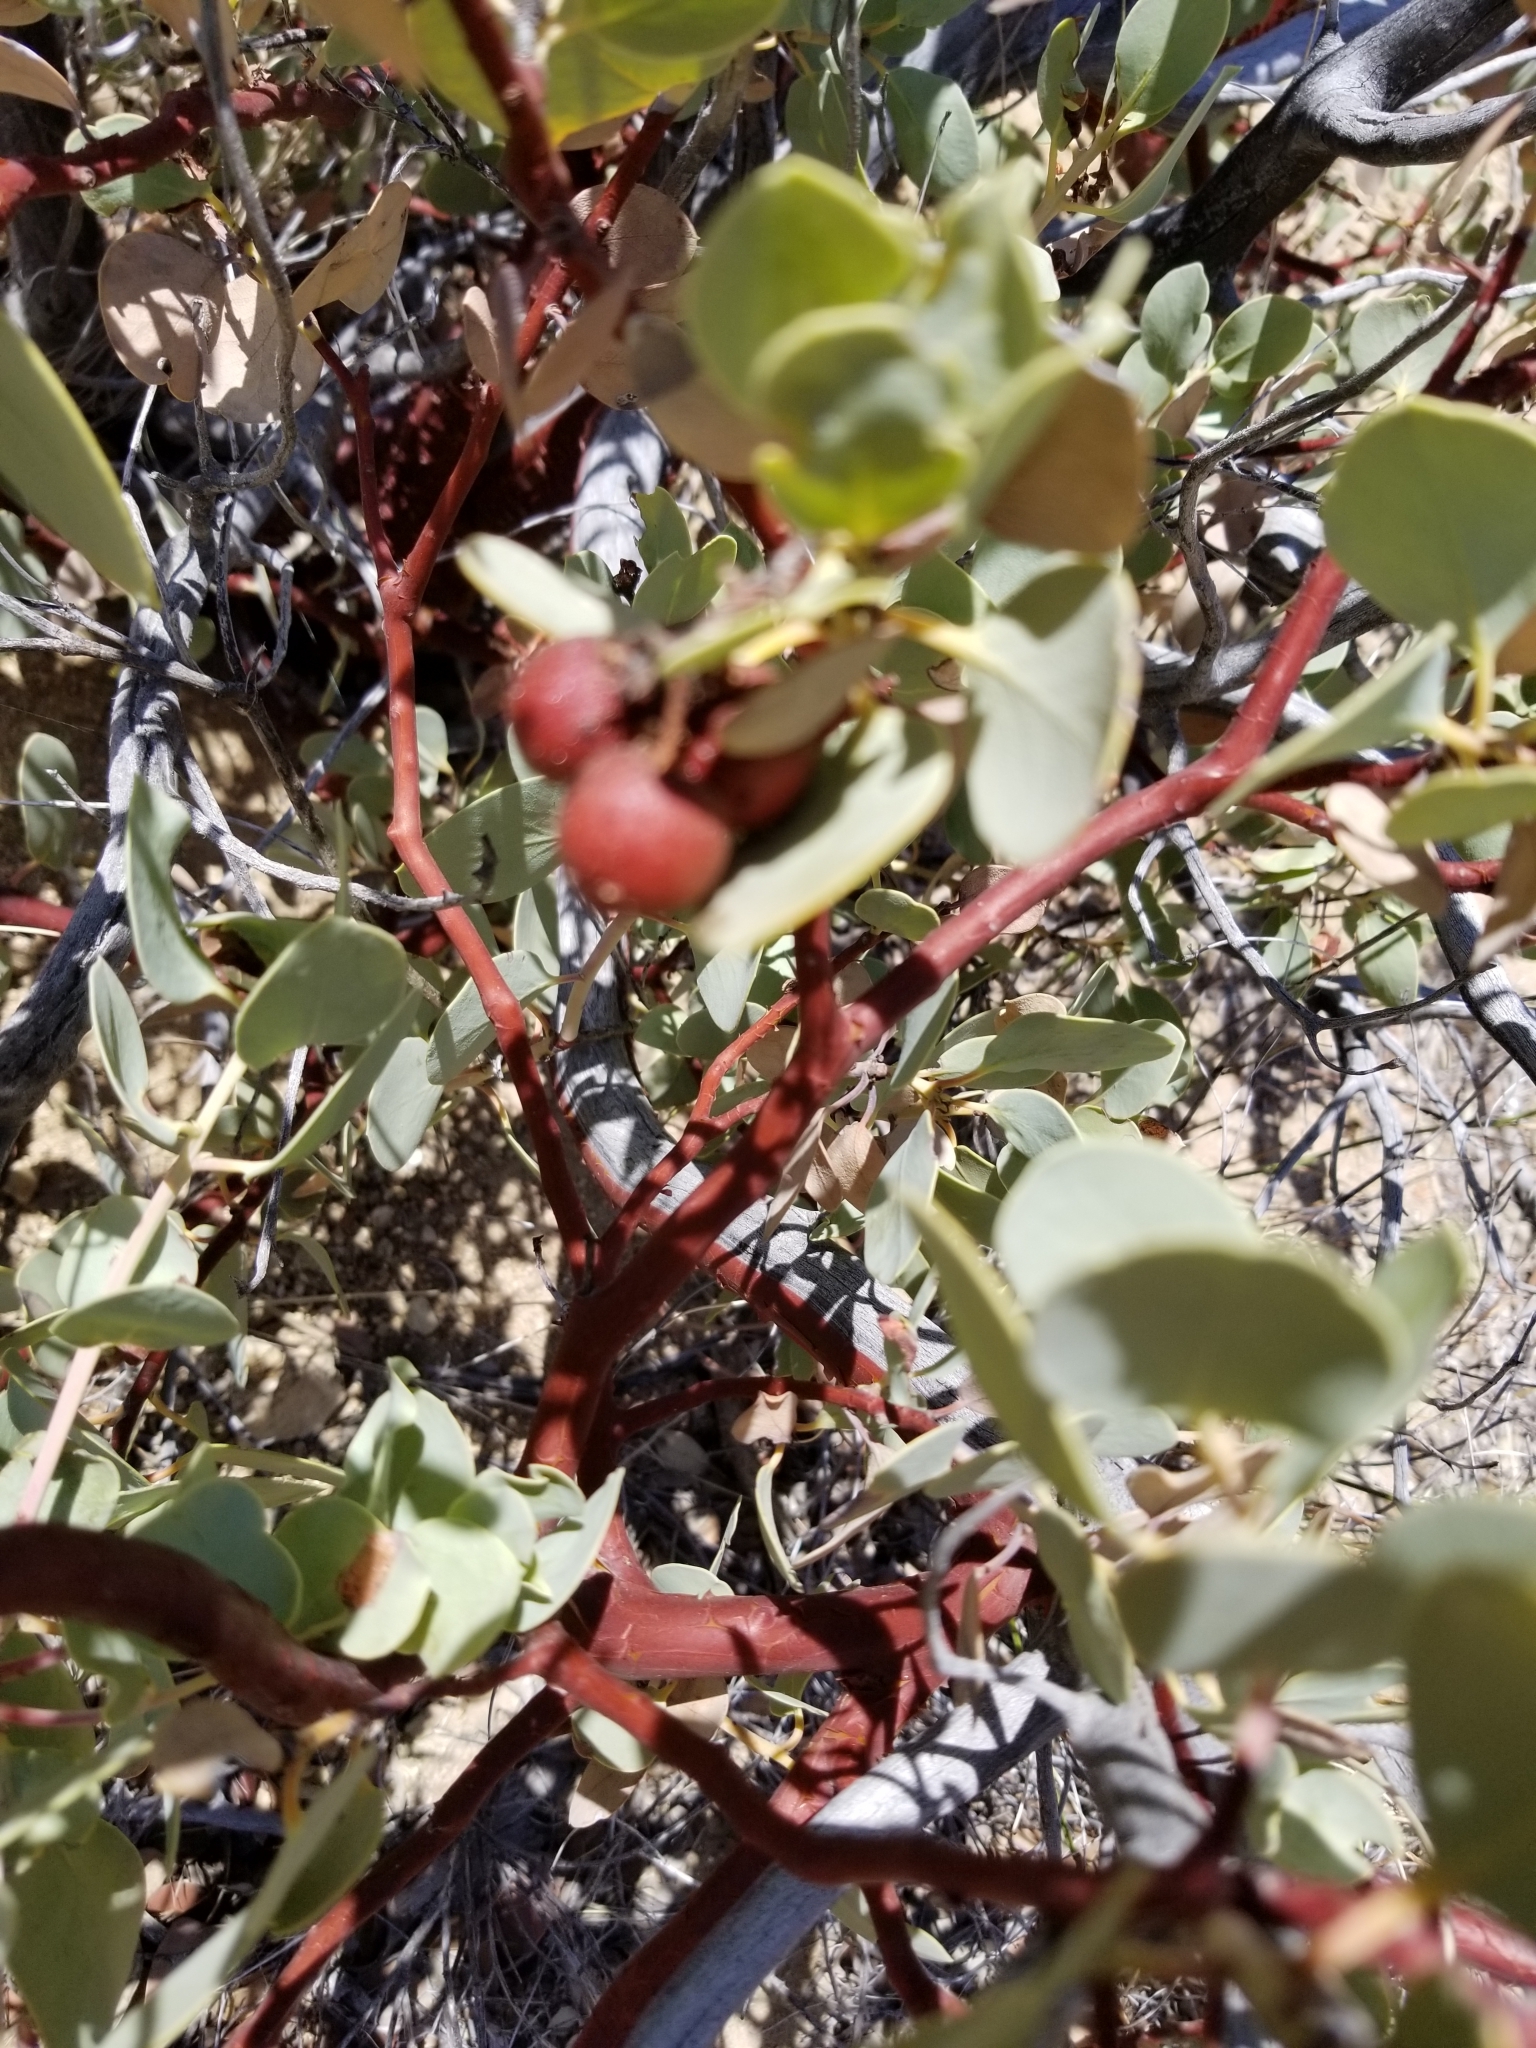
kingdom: Plantae
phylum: Tracheophyta
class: Magnoliopsida
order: Ericales
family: Ericaceae
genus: Arctostaphylos
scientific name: Arctostaphylos glauca
